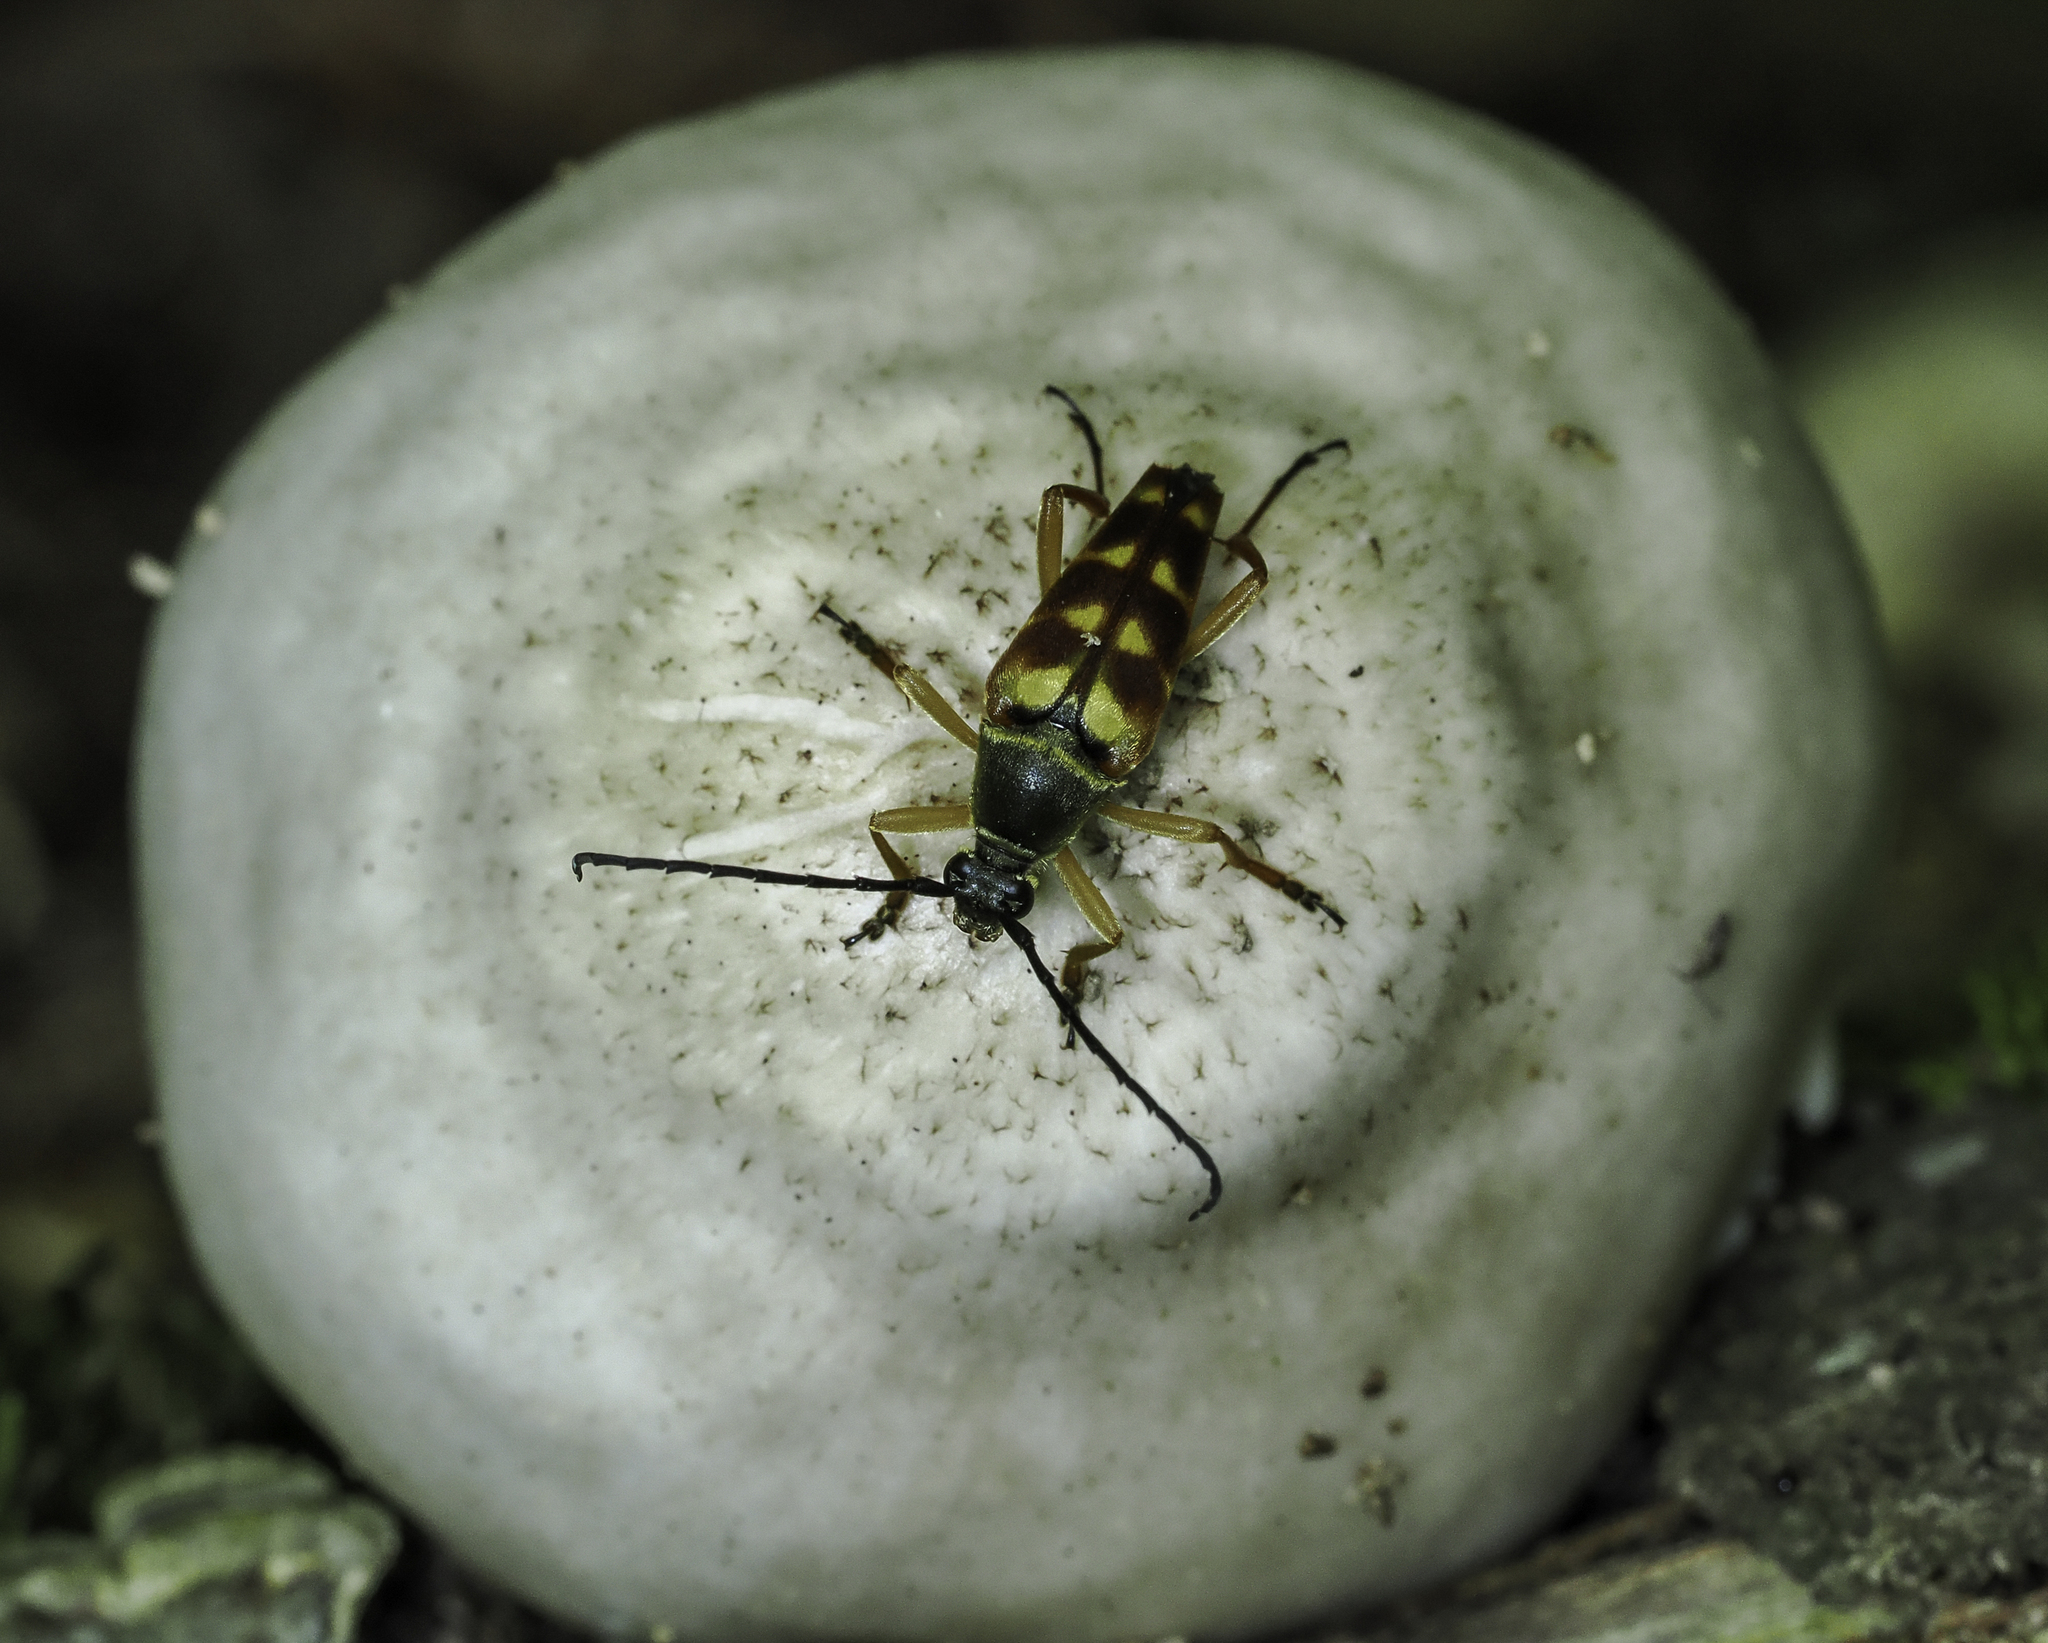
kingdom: Animalia
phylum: Arthropoda
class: Insecta
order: Coleoptera
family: Cerambycidae
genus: Typocerus
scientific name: Typocerus velutinus
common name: Banded longhorn beetle
